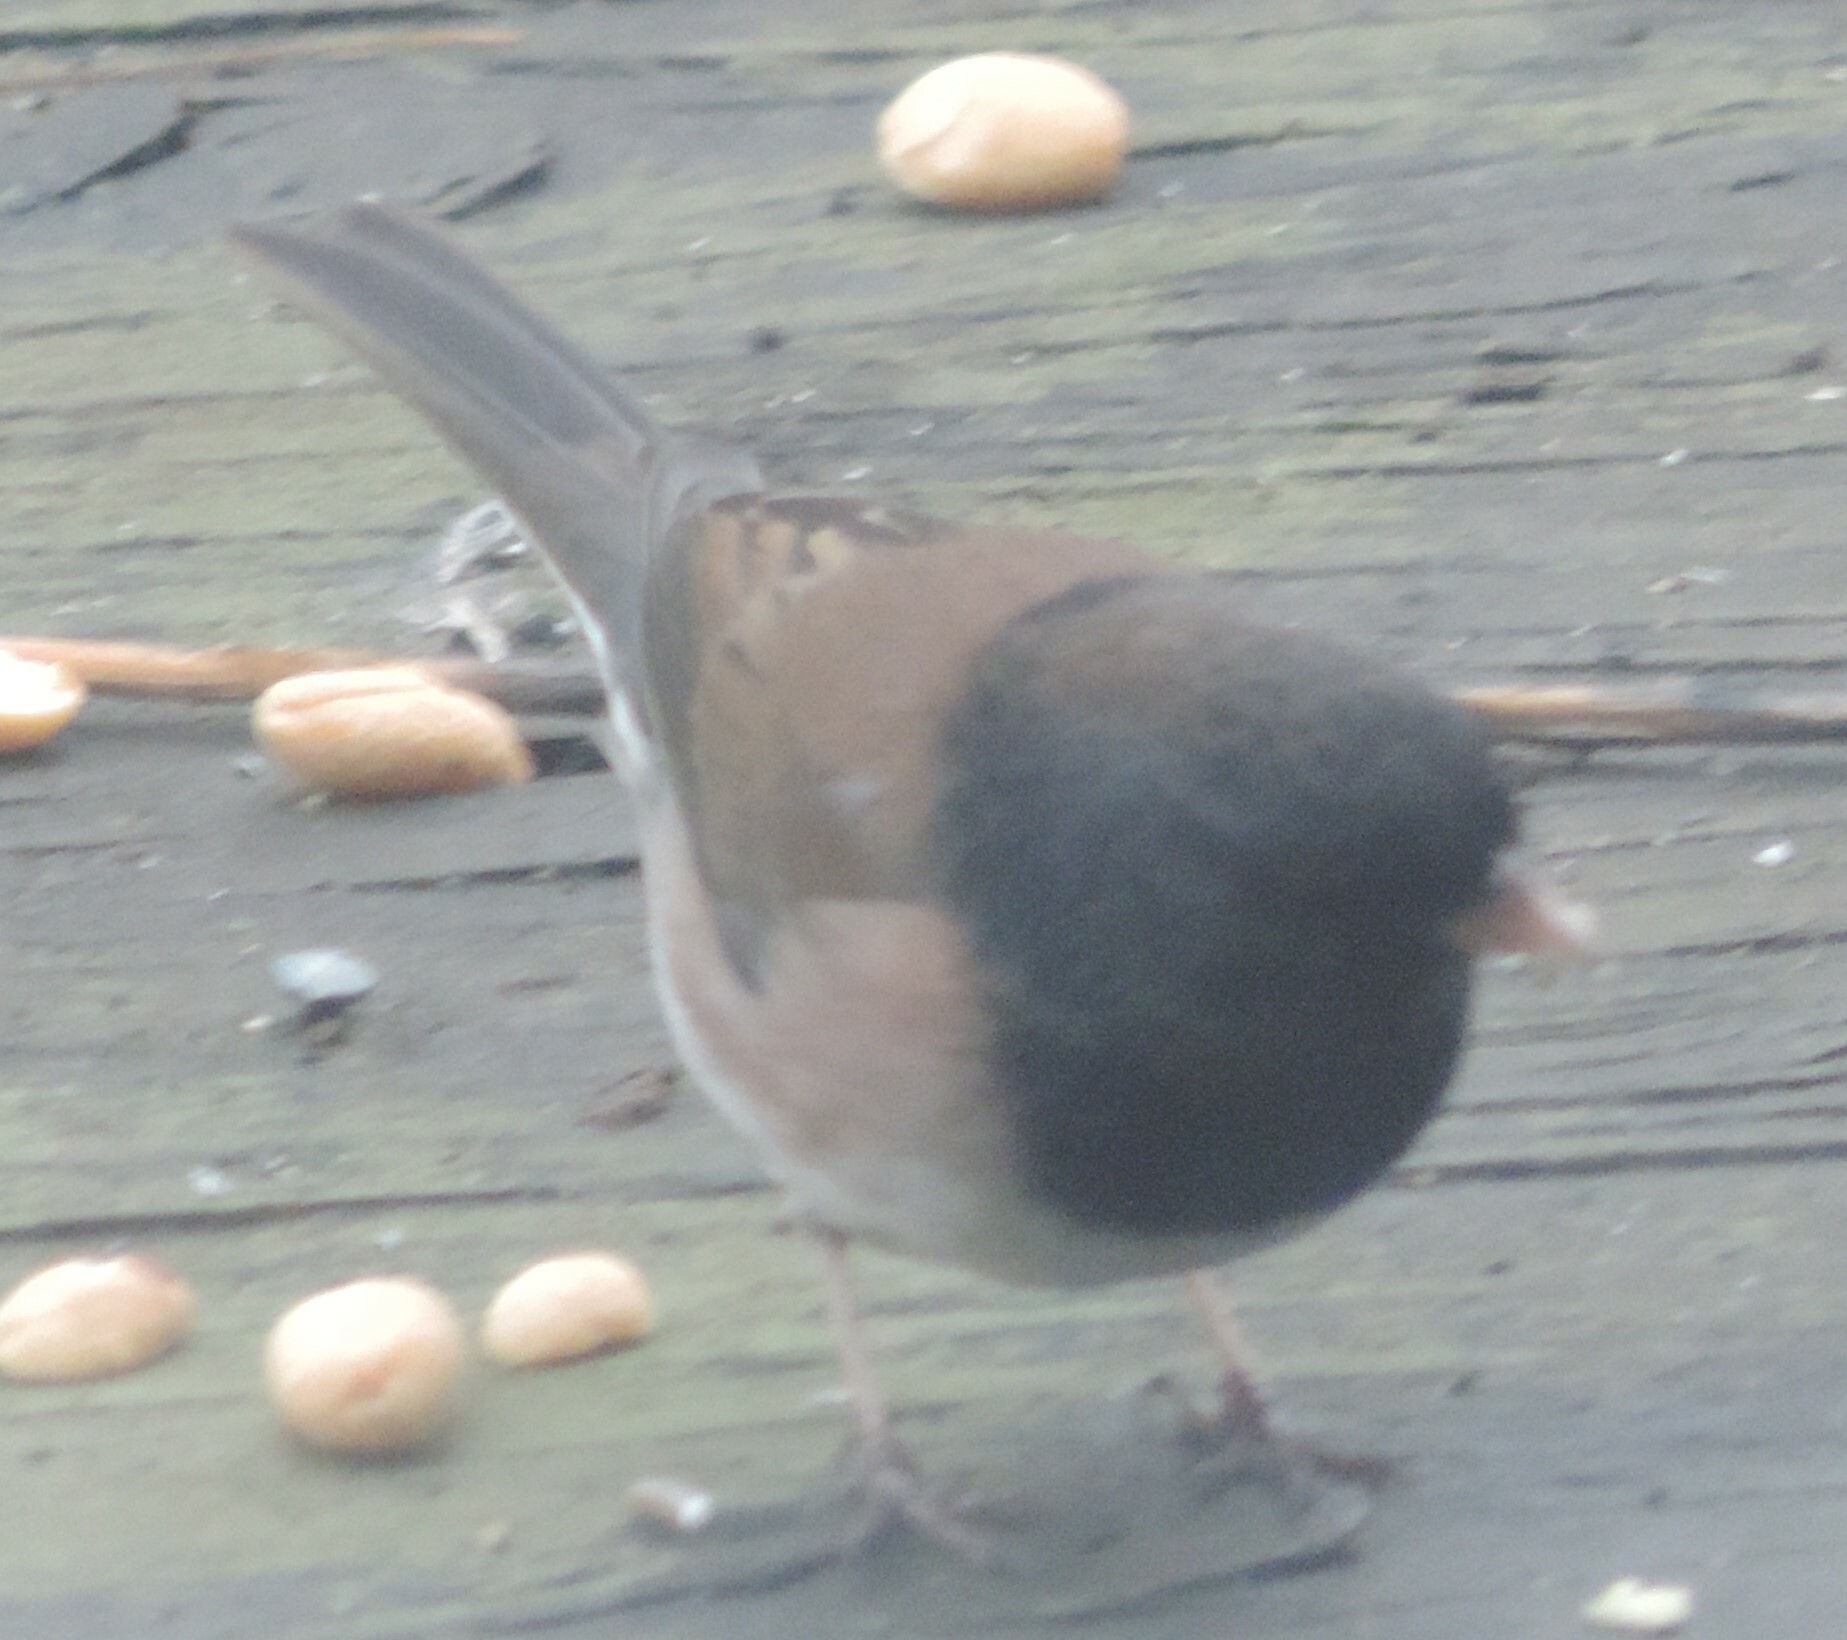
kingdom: Animalia
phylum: Chordata
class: Aves
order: Passeriformes
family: Passerellidae
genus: Junco
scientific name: Junco hyemalis
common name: Dark-eyed junco
